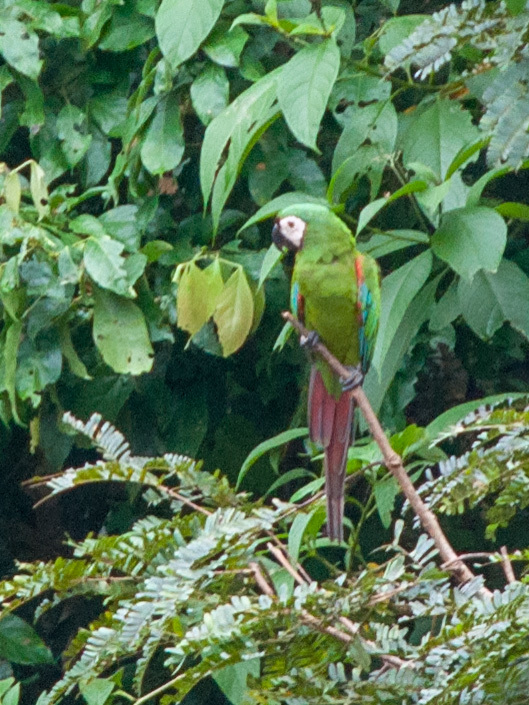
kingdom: Animalia
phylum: Chordata
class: Aves
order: Psittaciformes
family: Psittacidae
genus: Ara
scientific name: Ara severus
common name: Chestnut-fronted macaw
